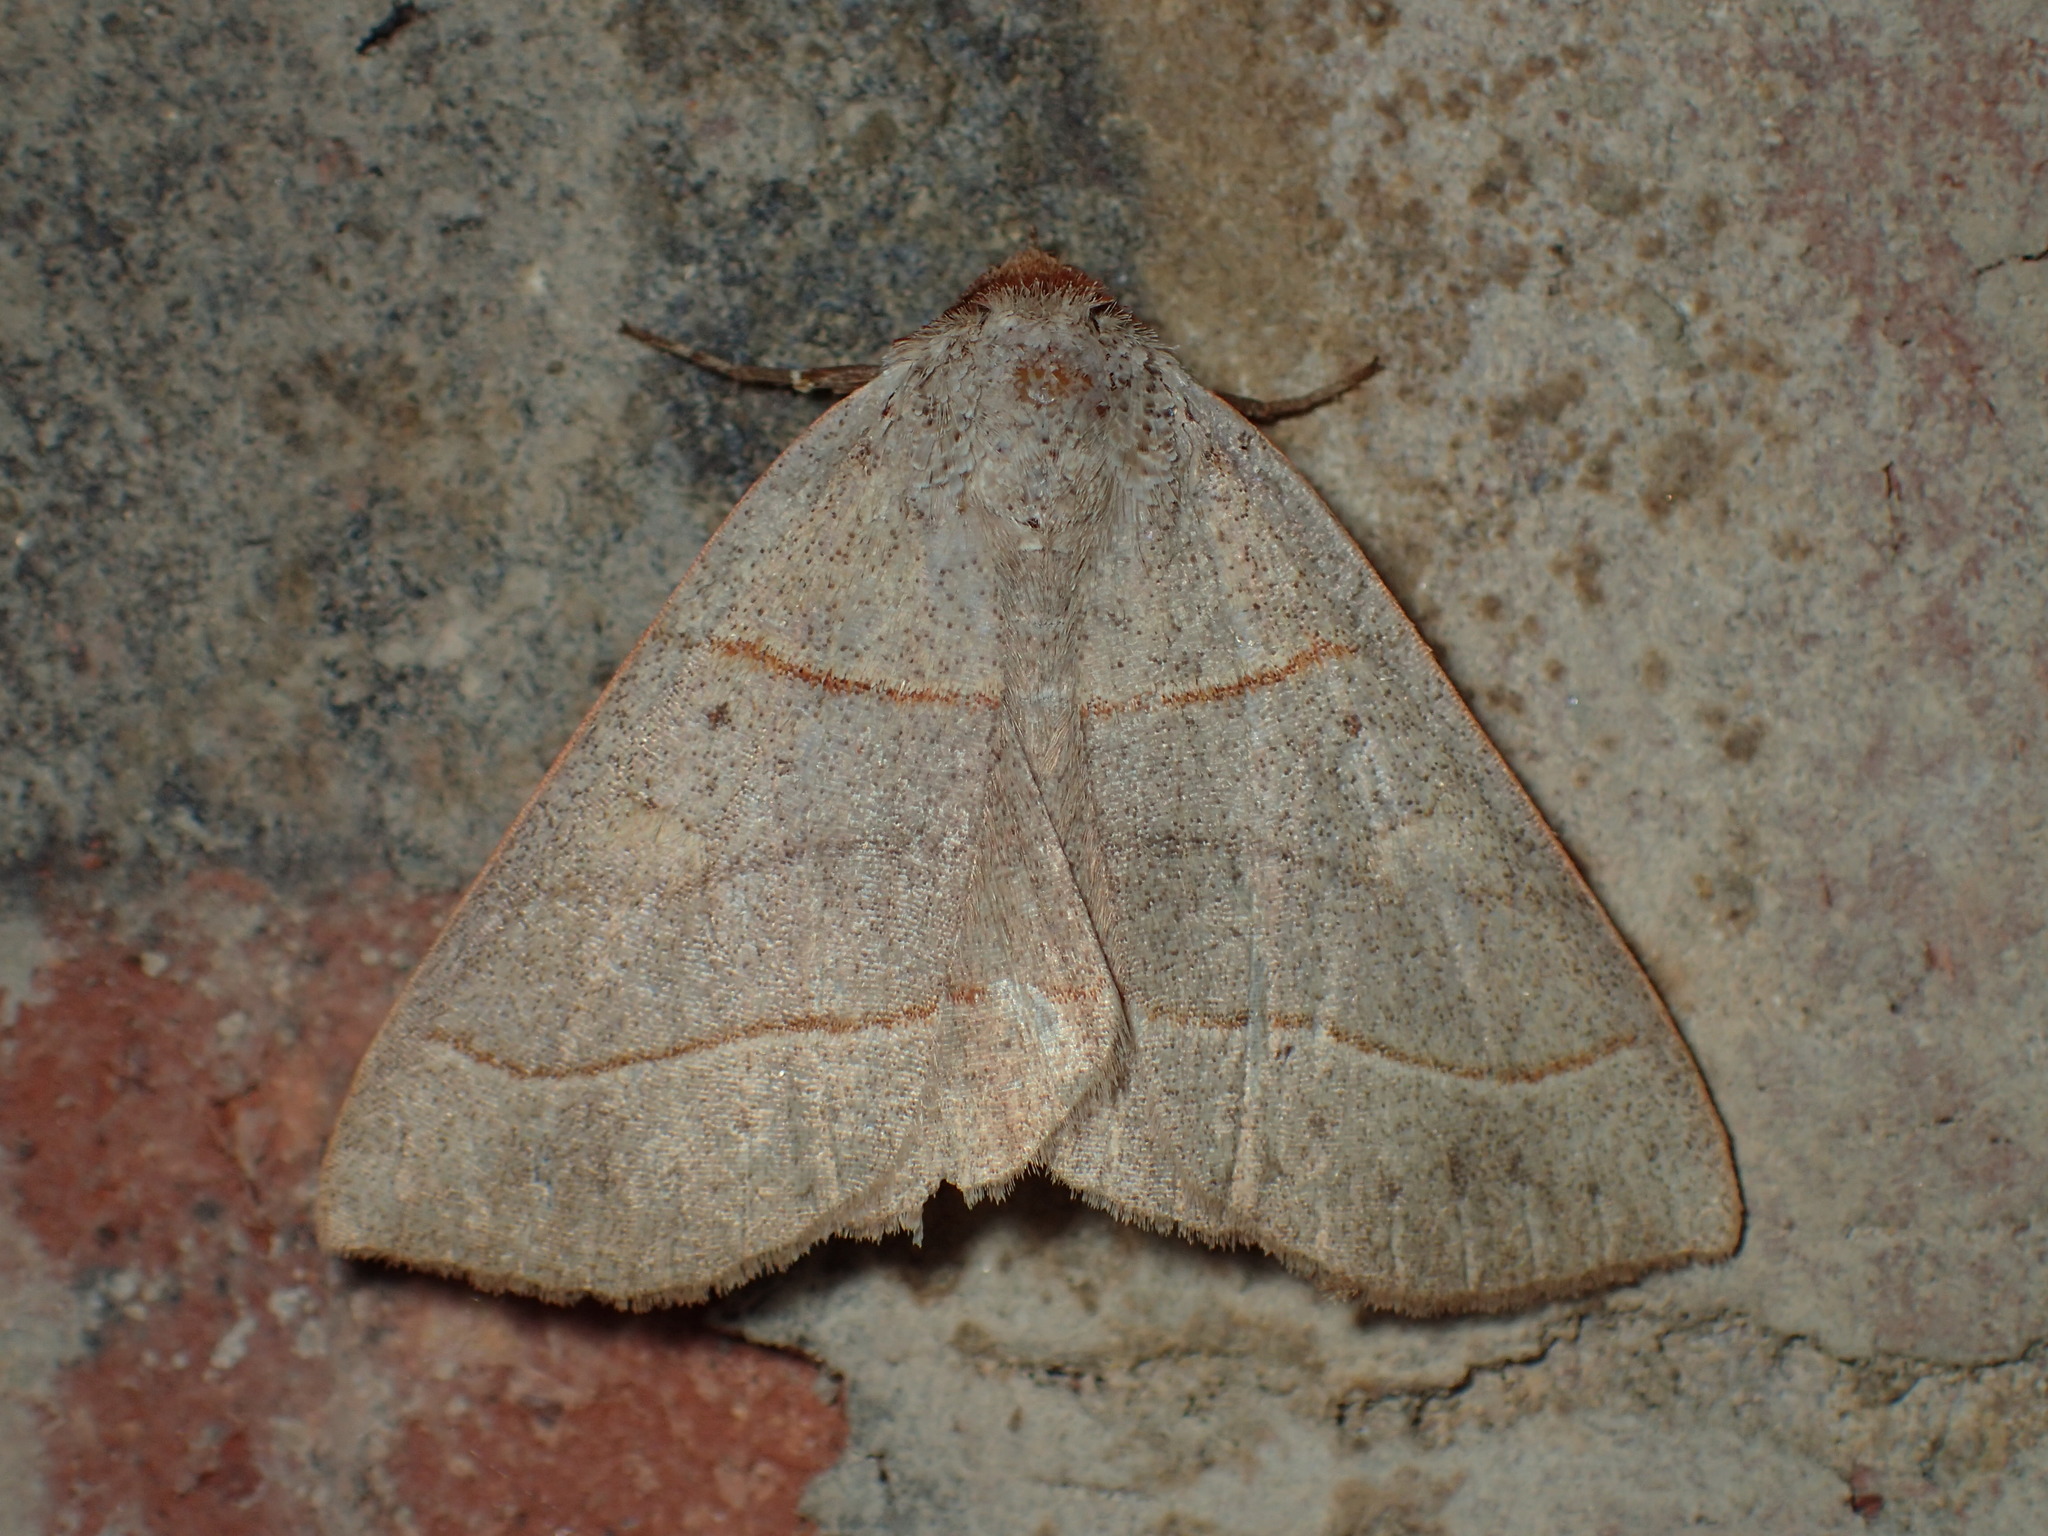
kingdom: Animalia
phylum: Arthropoda
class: Insecta
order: Lepidoptera
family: Erebidae
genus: Panopoda
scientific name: Panopoda rufimargo
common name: Red-lined panopoda moth
